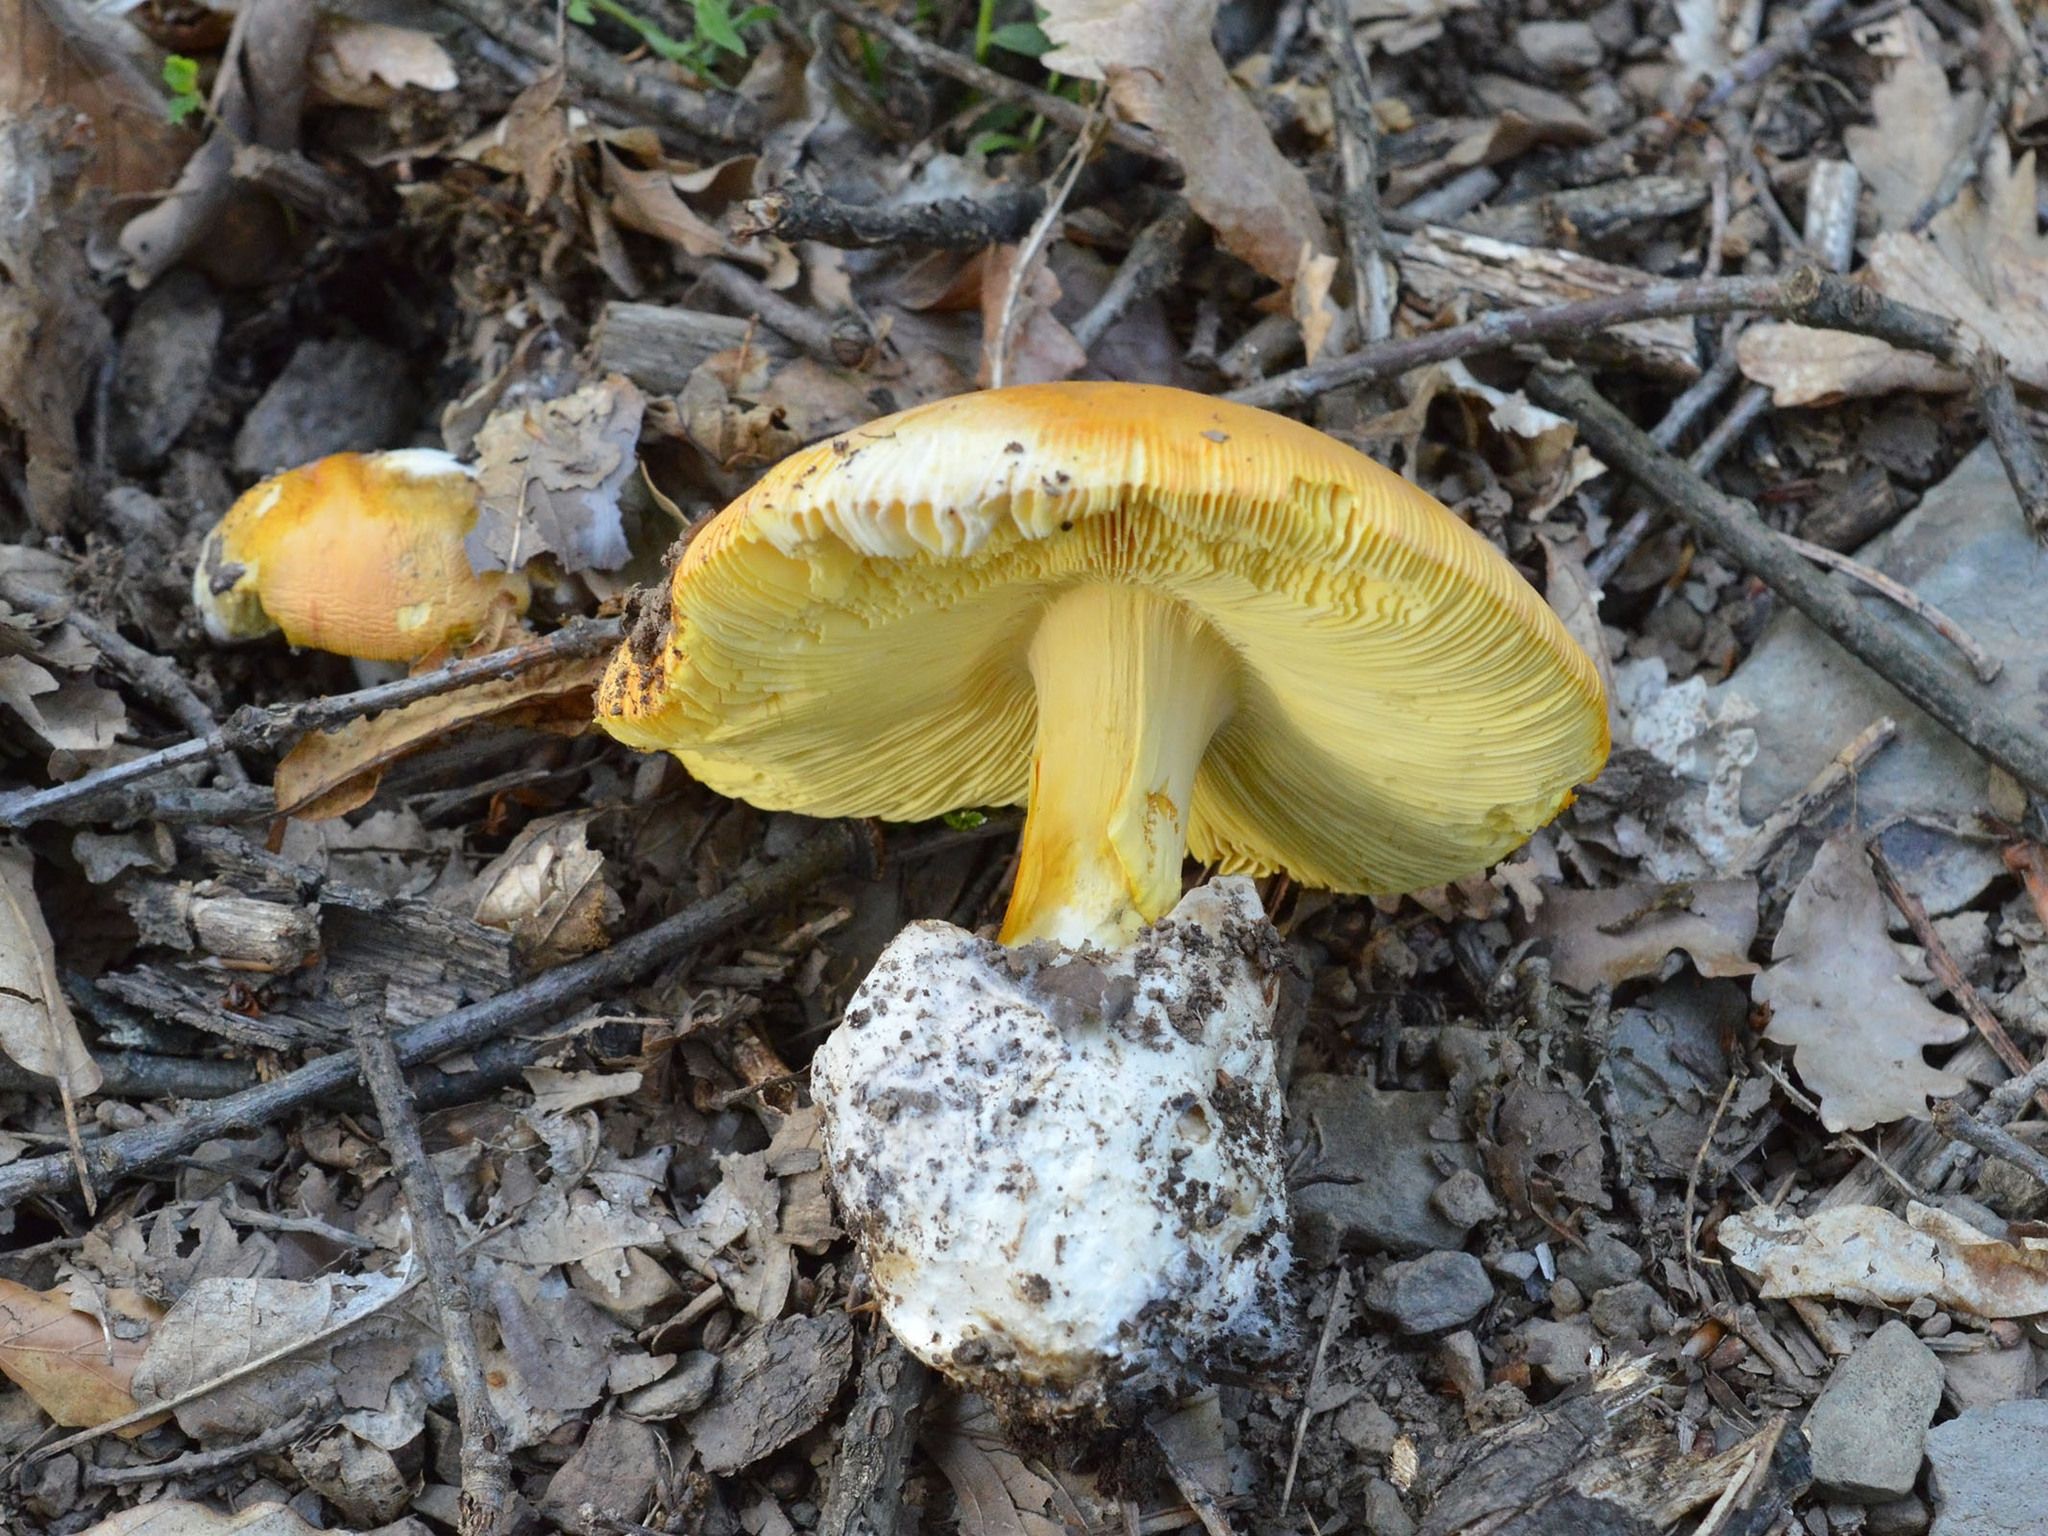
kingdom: Fungi
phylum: Basidiomycota
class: Agaricomycetes
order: Agaricales
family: Amanitaceae
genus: Amanita
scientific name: Amanita caesarea
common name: Caesar's amanita
